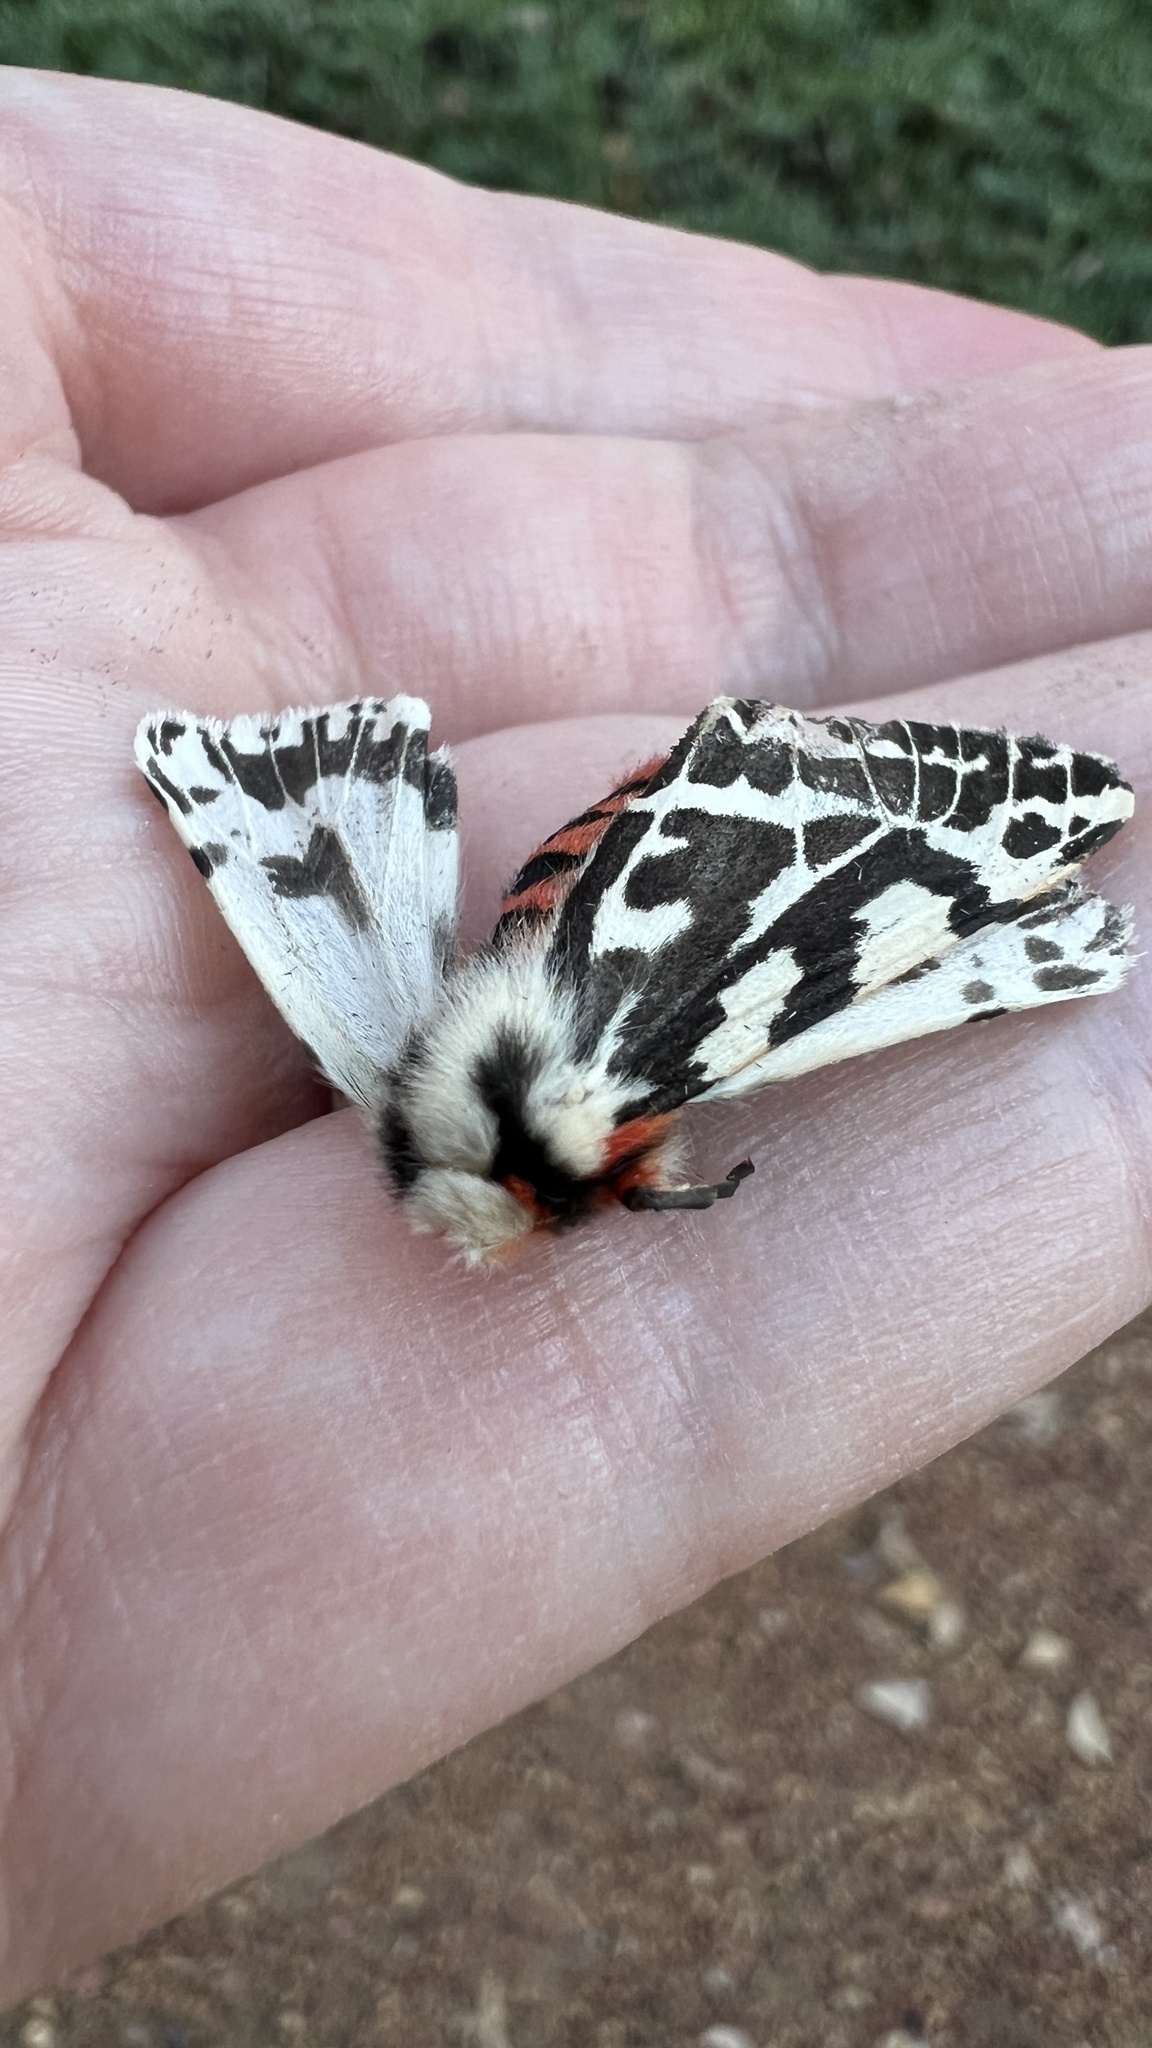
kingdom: Animalia
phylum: Arthropoda
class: Insecta
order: Lepidoptera
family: Erebidae
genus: Ardices
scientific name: Ardices glatignyi
